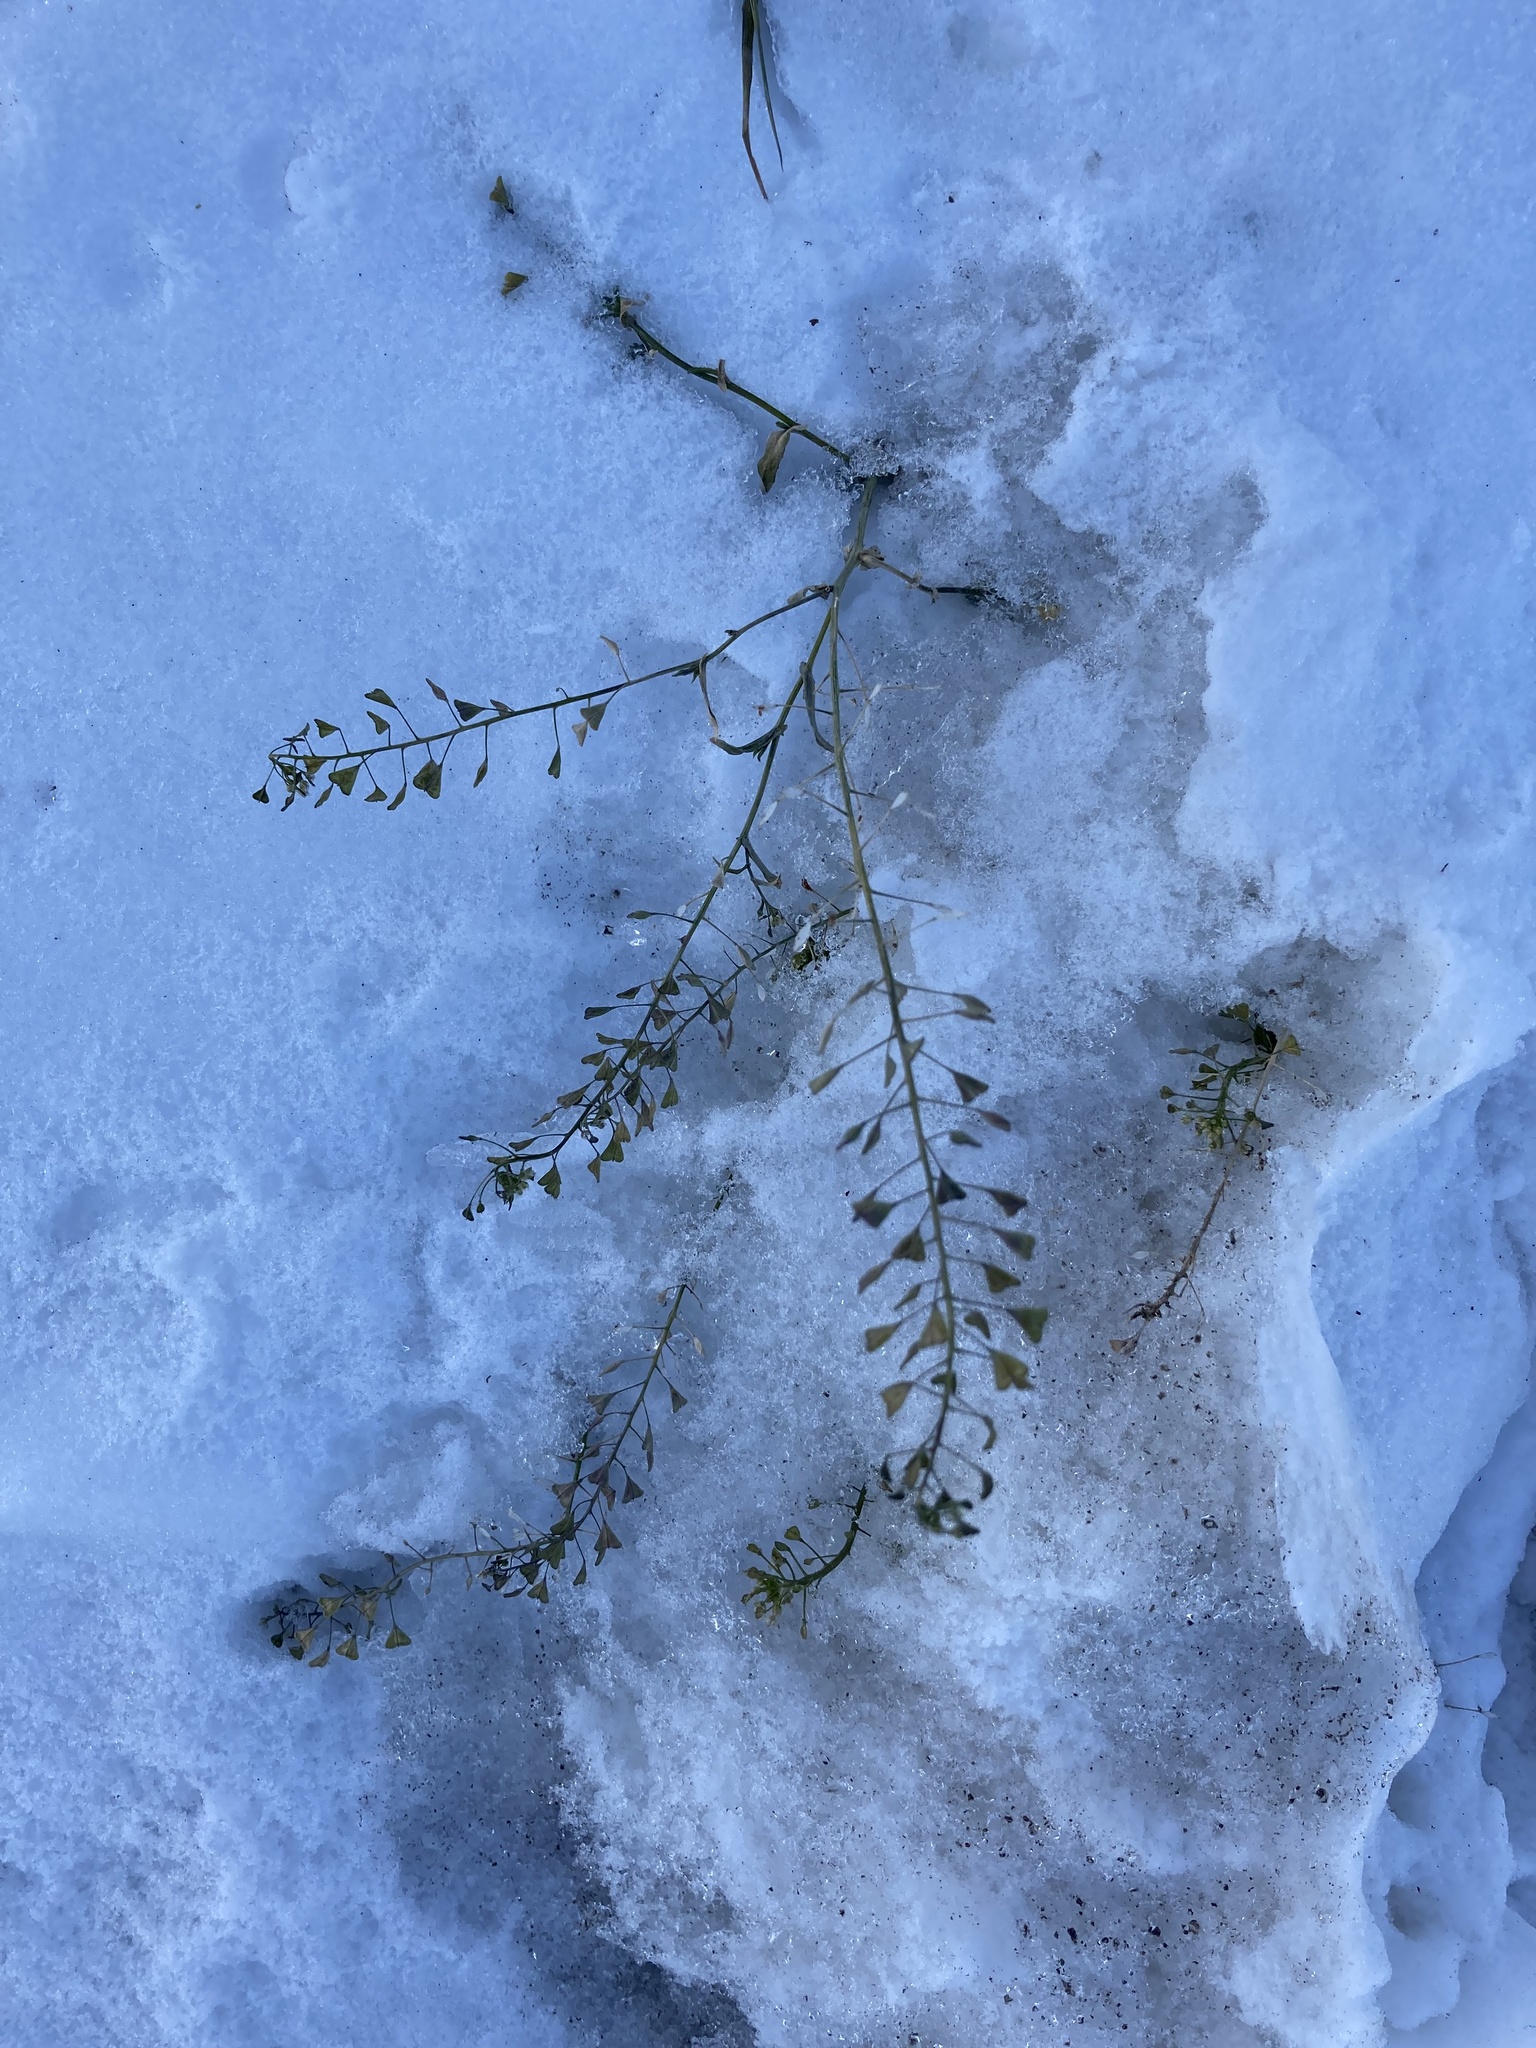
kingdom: Plantae
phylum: Tracheophyta
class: Magnoliopsida
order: Brassicales
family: Brassicaceae
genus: Capsella
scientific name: Capsella bursa-pastoris
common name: Shepherd's purse
